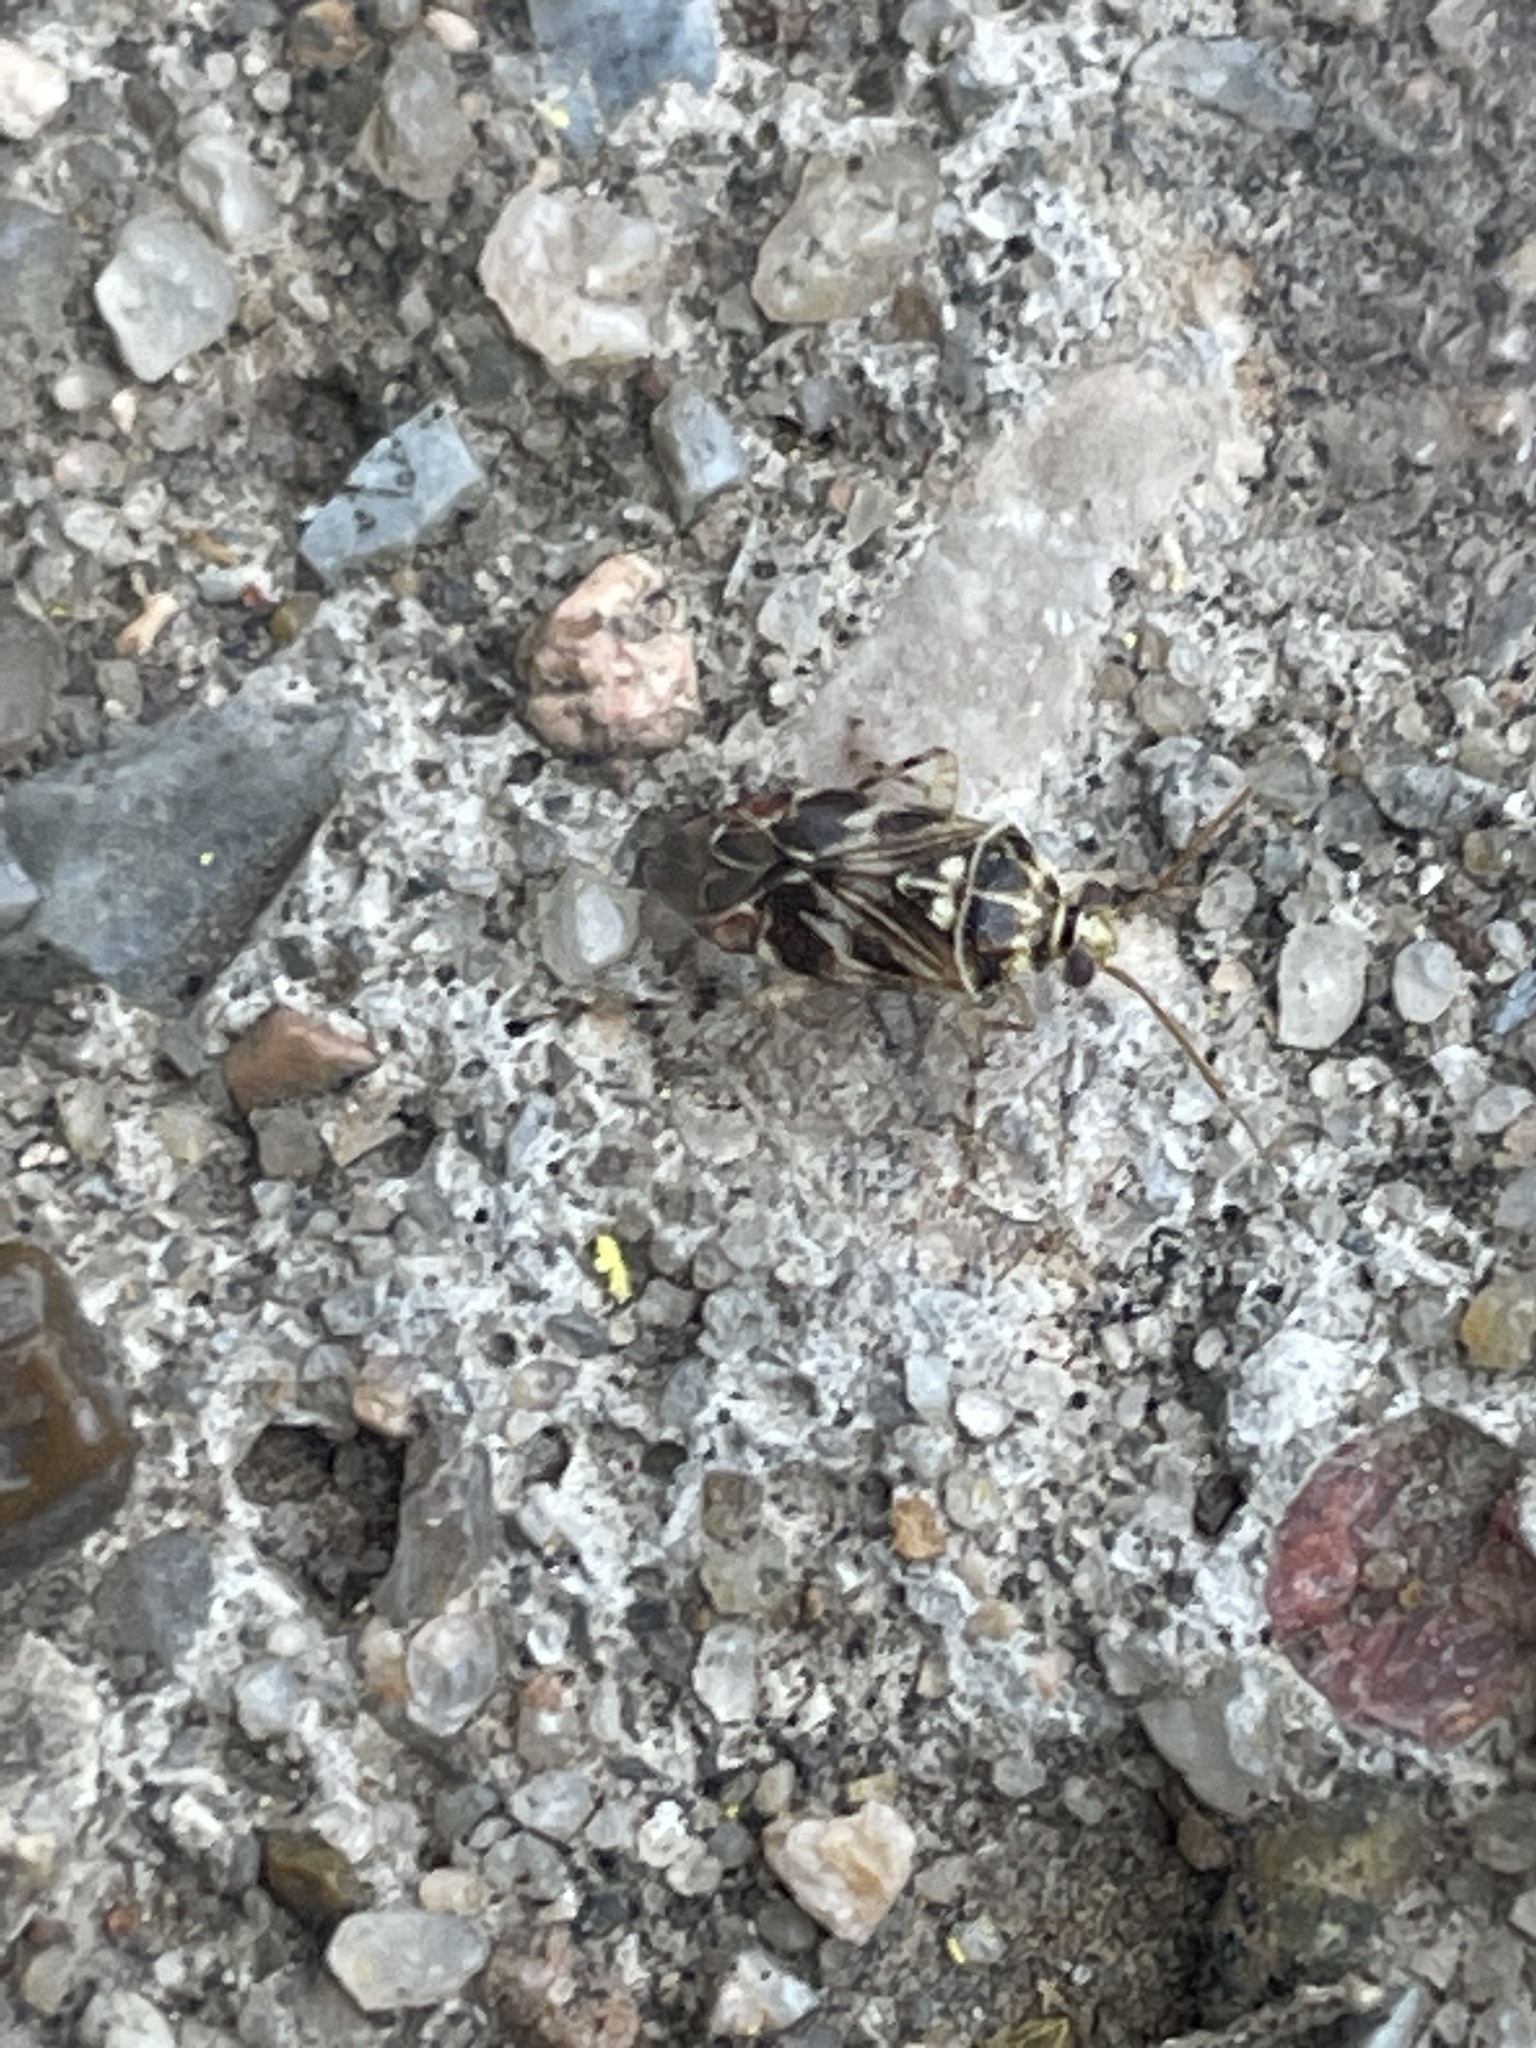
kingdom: Animalia
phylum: Arthropoda
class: Insecta
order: Hemiptera
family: Miridae
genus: Tropidosteptes
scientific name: Tropidosteptes quercicola
